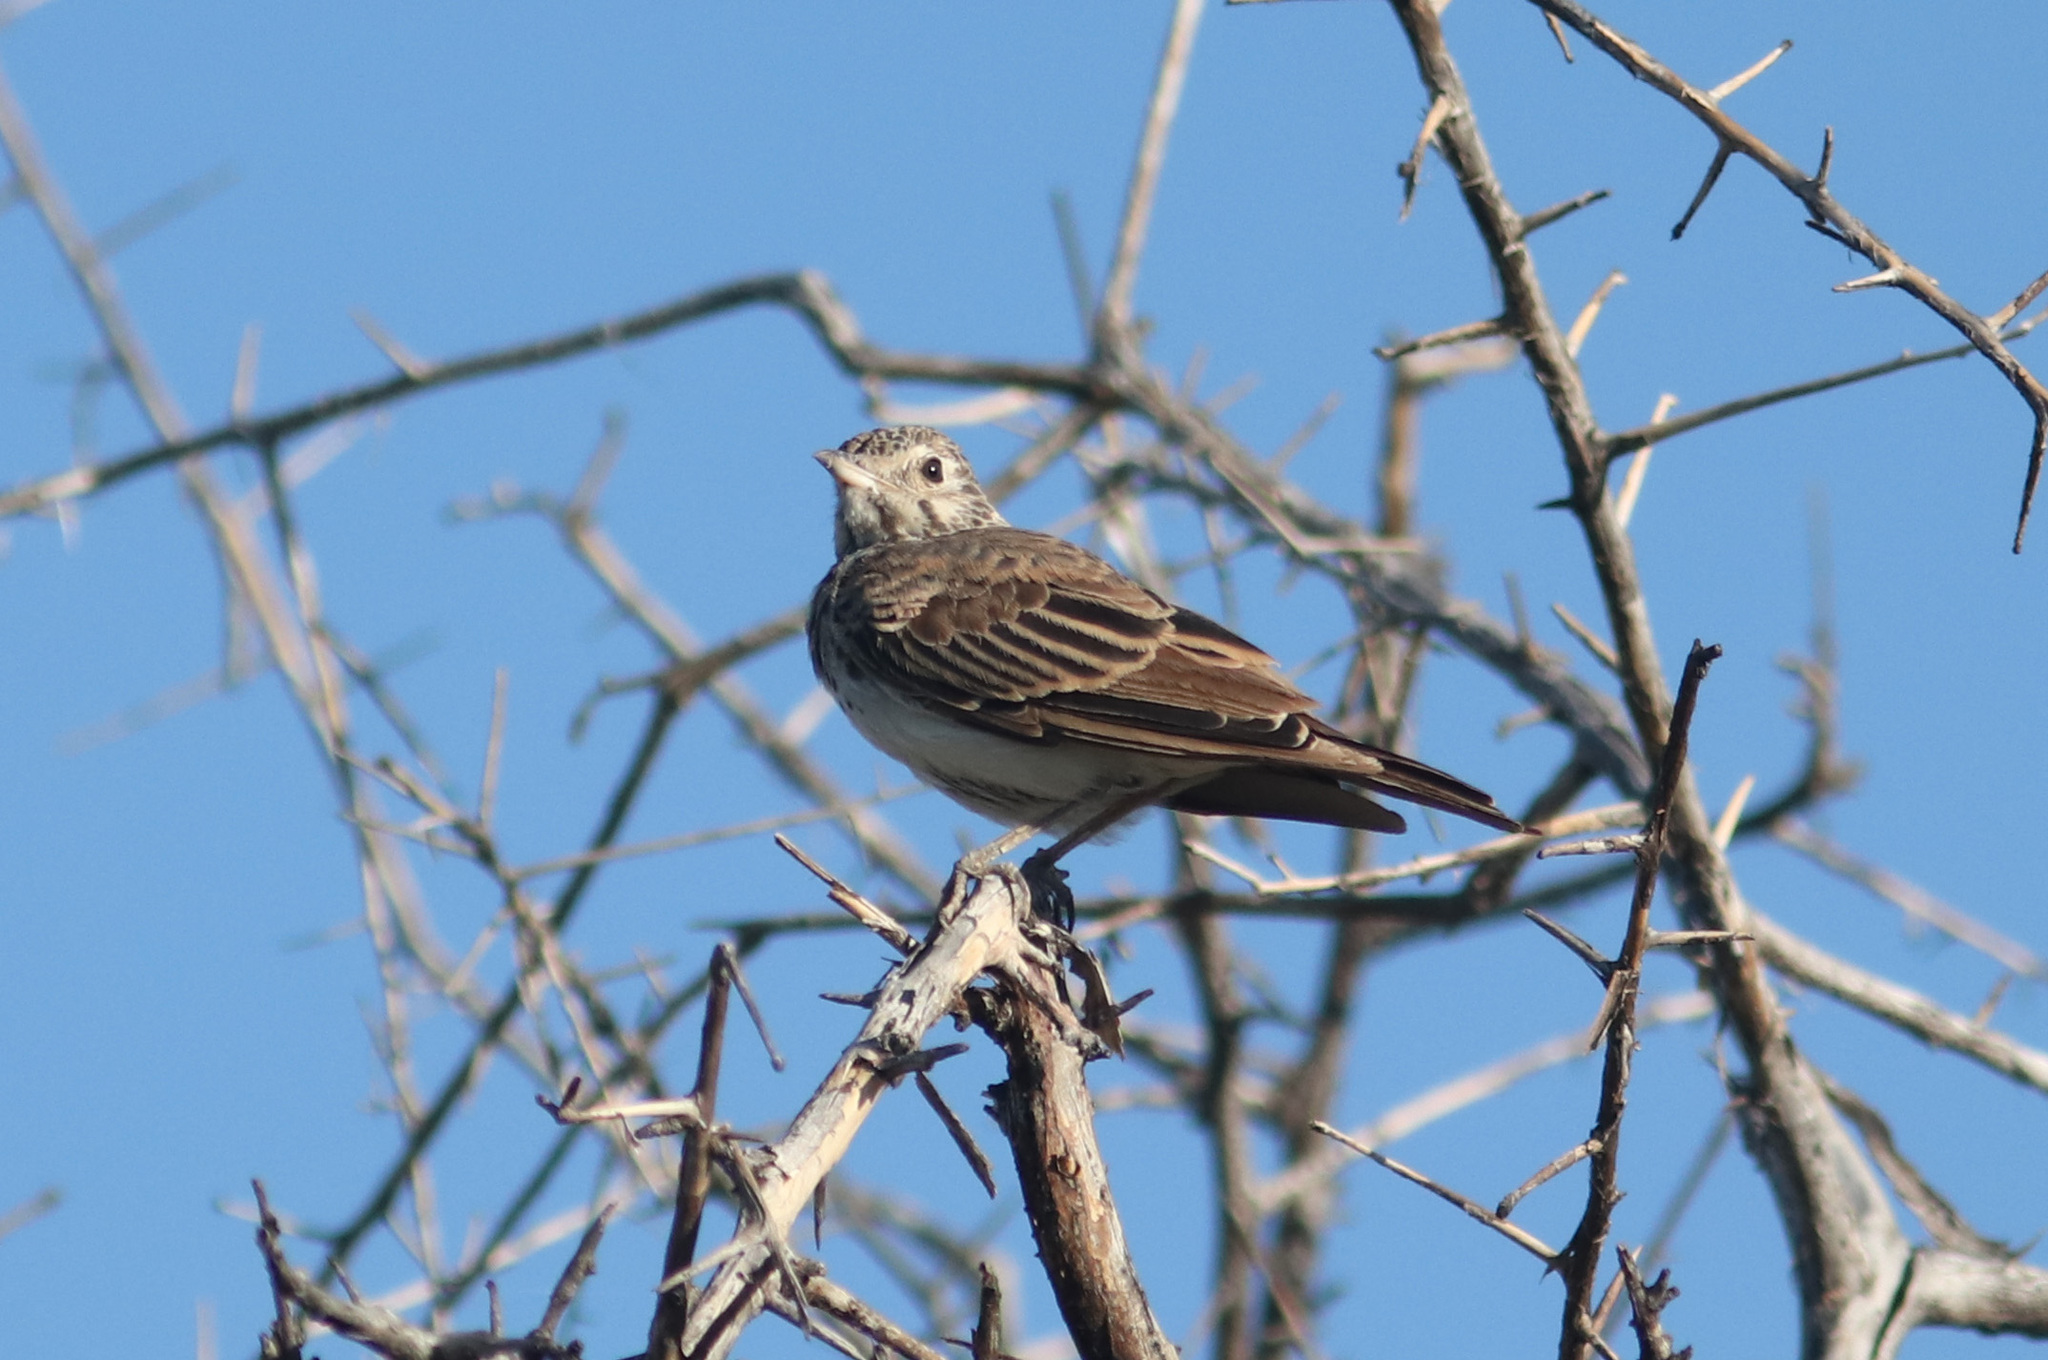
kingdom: Animalia
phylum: Chordata
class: Aves
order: Passeriformes
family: Alaudidae
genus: Pinarocorys
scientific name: Pinarocorys nigricans
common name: Dusky lark
